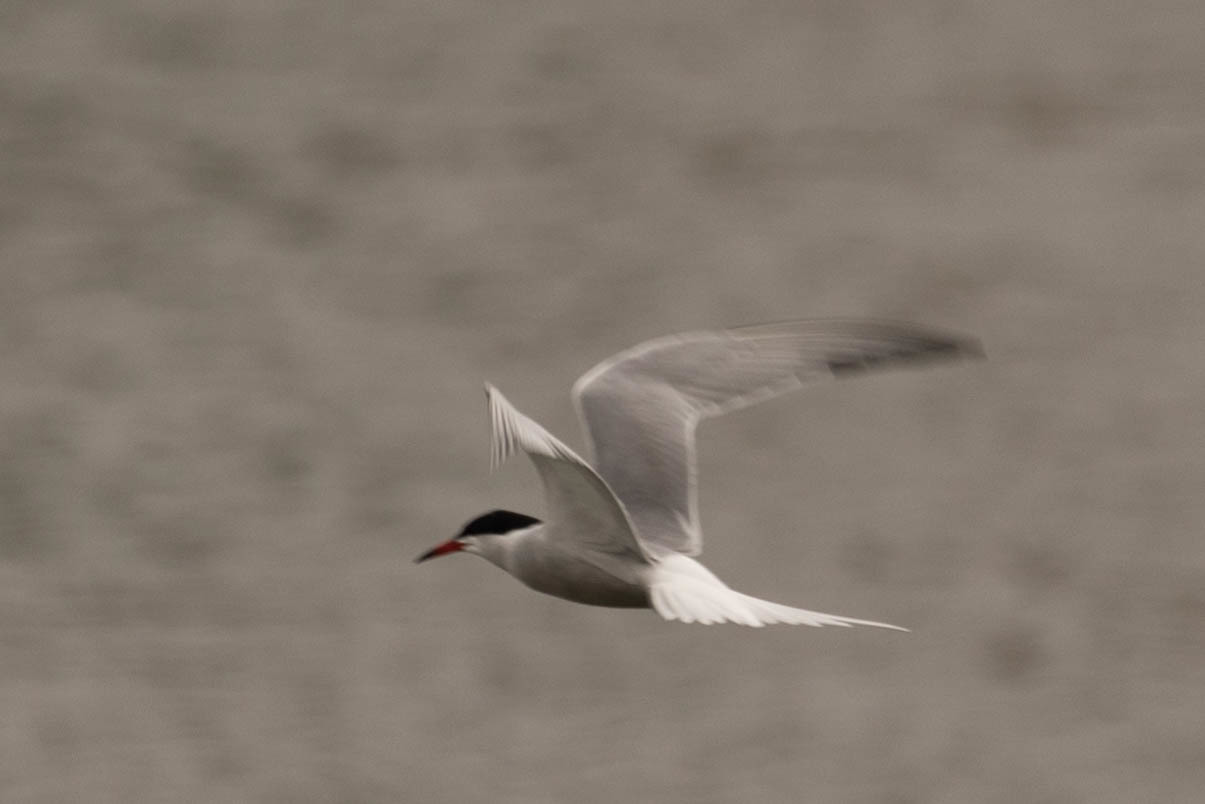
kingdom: Animalia
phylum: Chordata
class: Aves
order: Charadriiformes
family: Laridae
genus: Sterna
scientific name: Sterna hirundo
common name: Common tern
